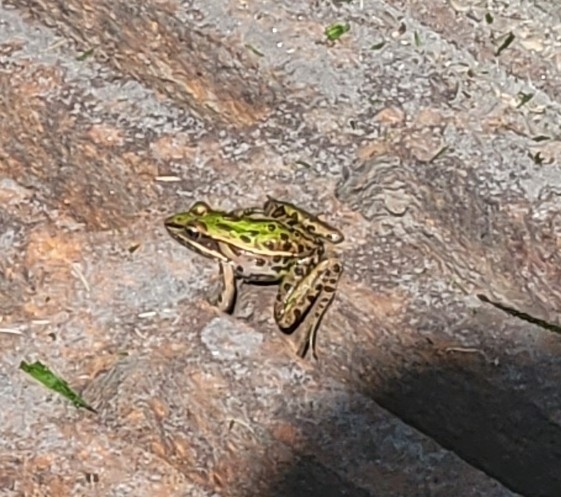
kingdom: Animalia
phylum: Chordata
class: Amphibia
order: Anura
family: Ranidae
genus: Lithobates
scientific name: Lithobates sphenocephalus
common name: Southern leopard frog
